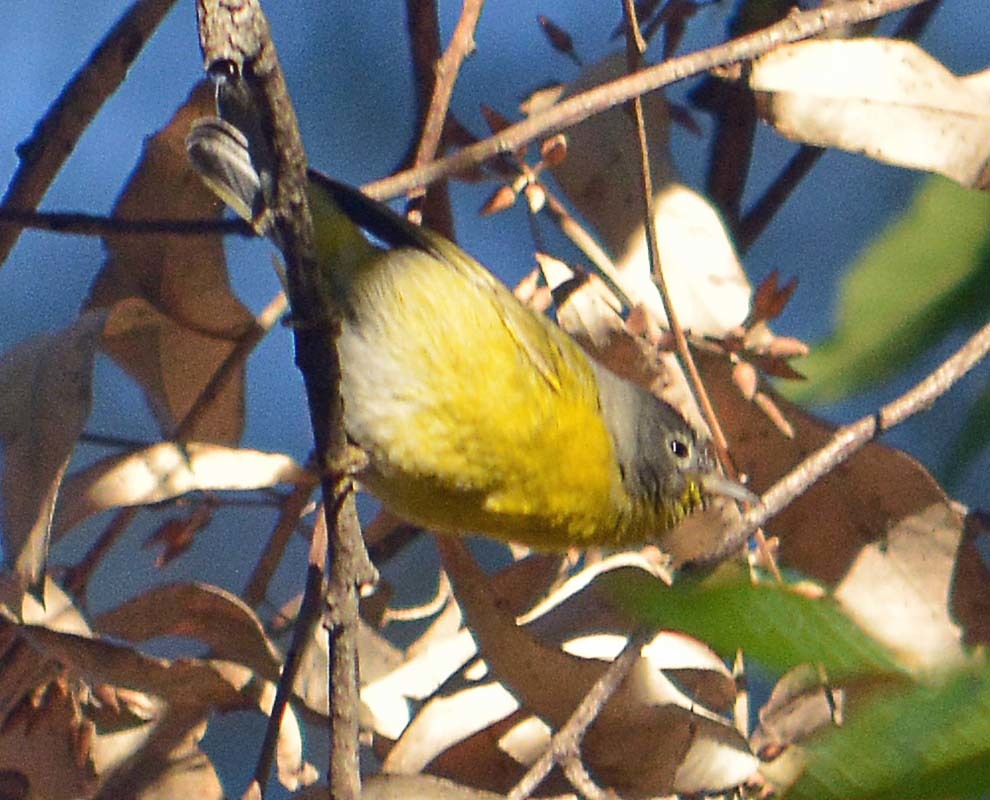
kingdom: Animalia
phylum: Chordata
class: Aves
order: Passeriformes
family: Parulidae
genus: Leiothlypis
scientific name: Leiothlypis ruficapilla
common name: Nashville warbler
